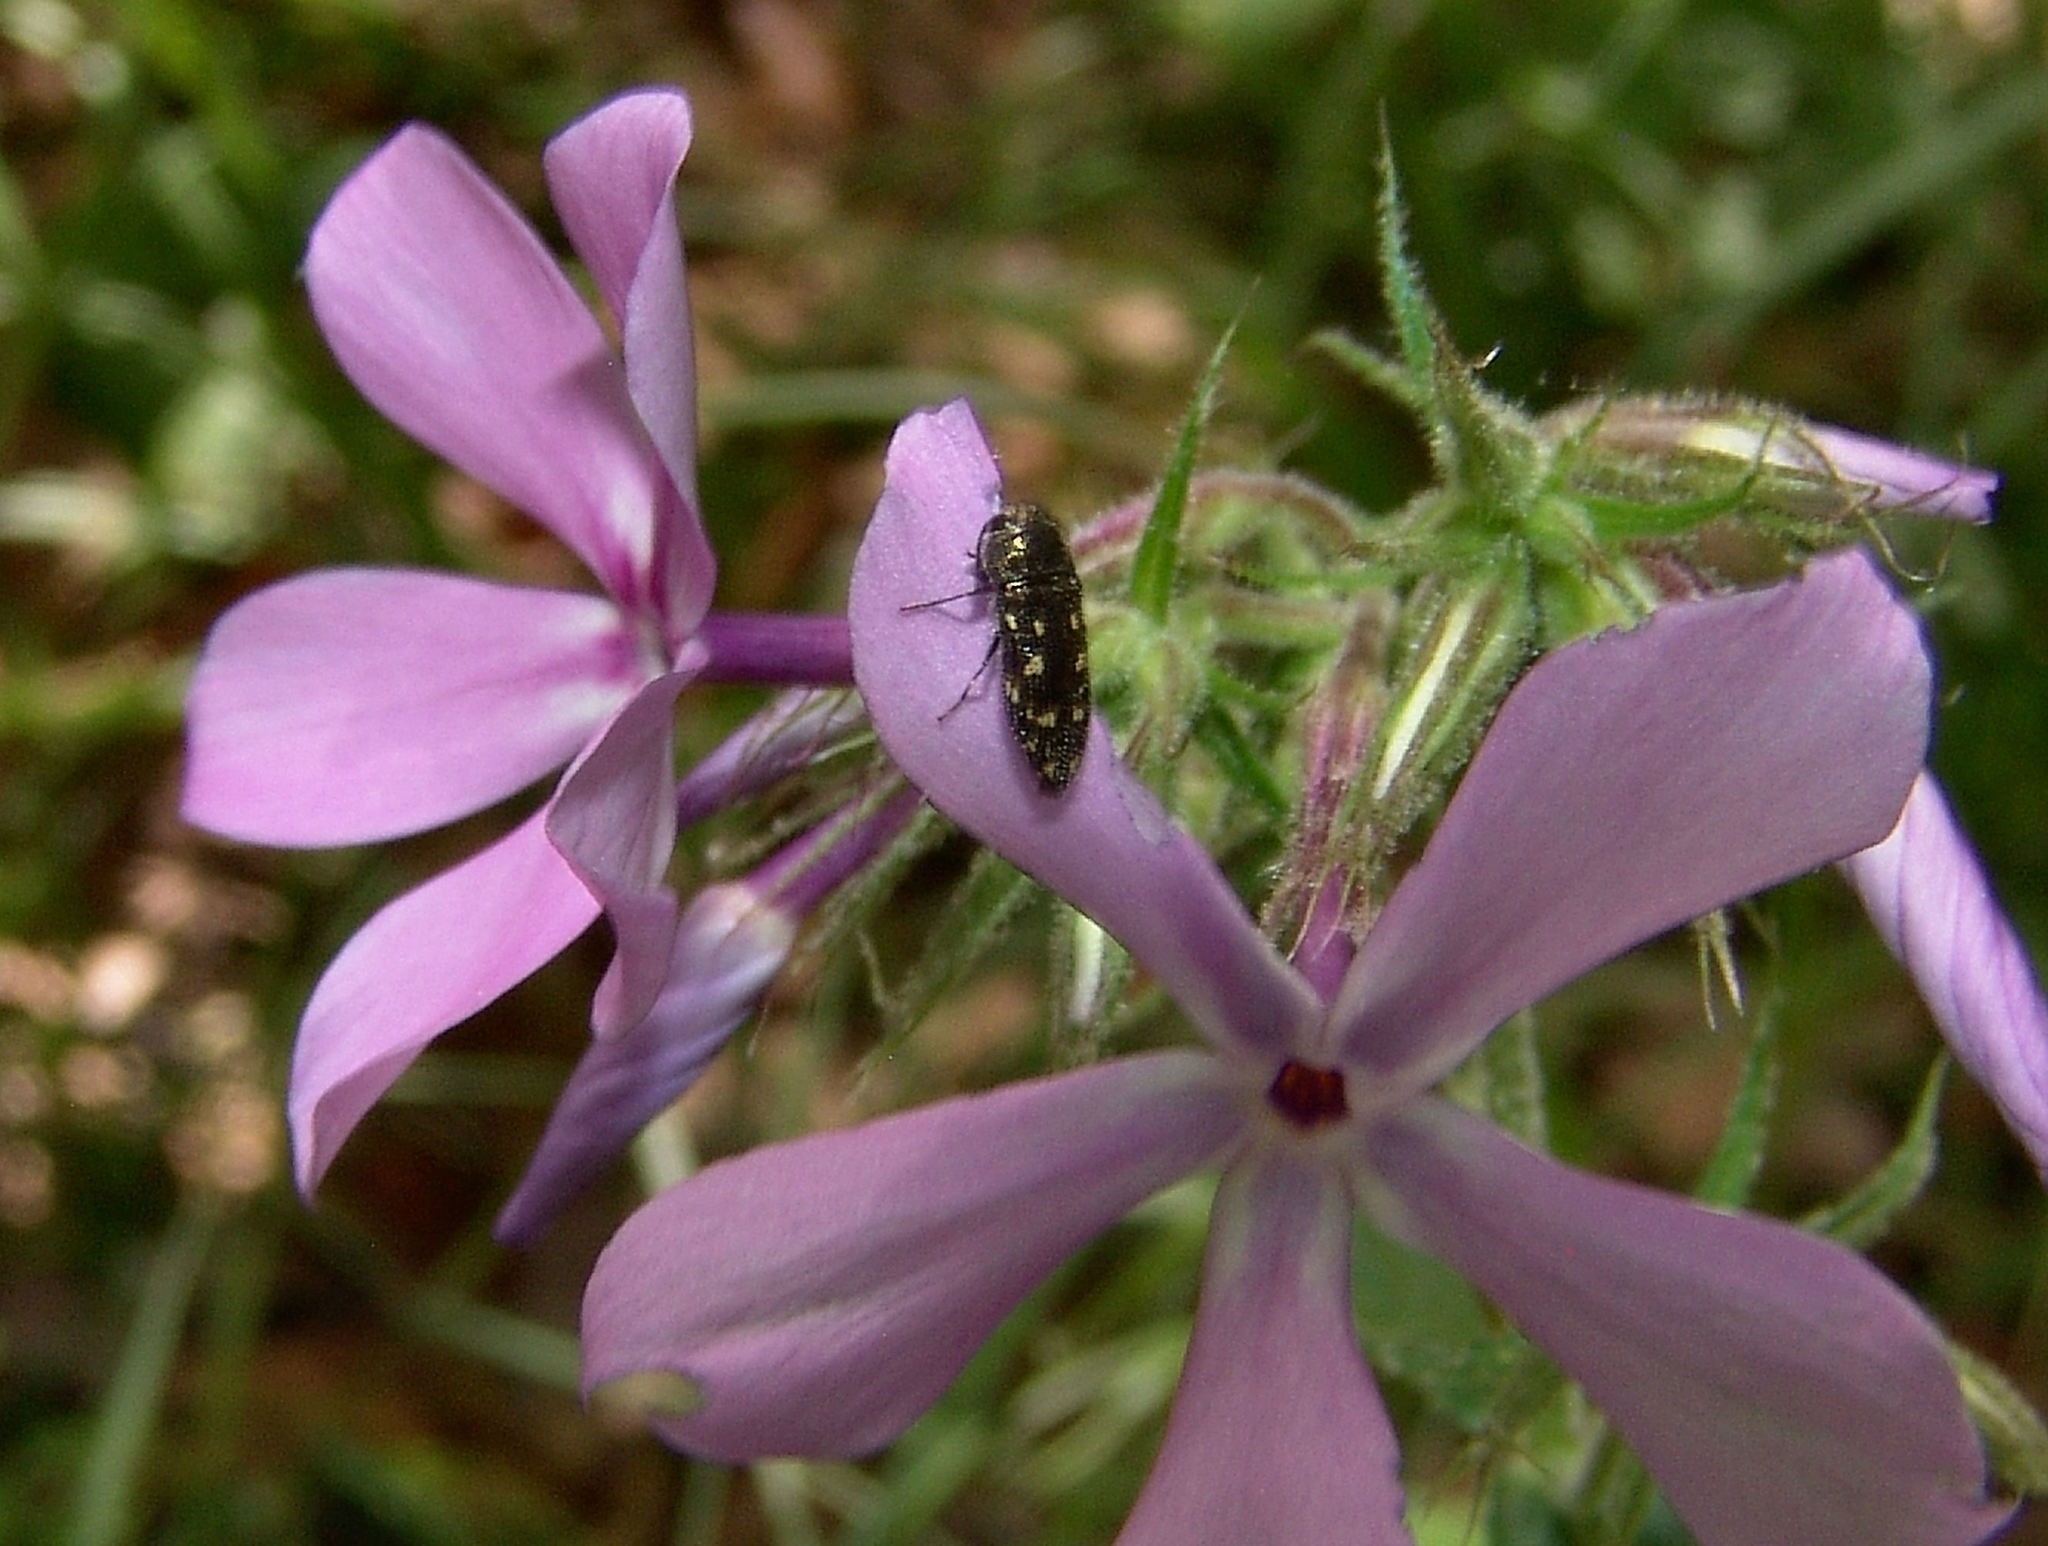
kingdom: Animalia
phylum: Arthropoda
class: Insecta
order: Coleoptera
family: Buprestidae
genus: Acmaeodera
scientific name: Acmaeodera tubulus
